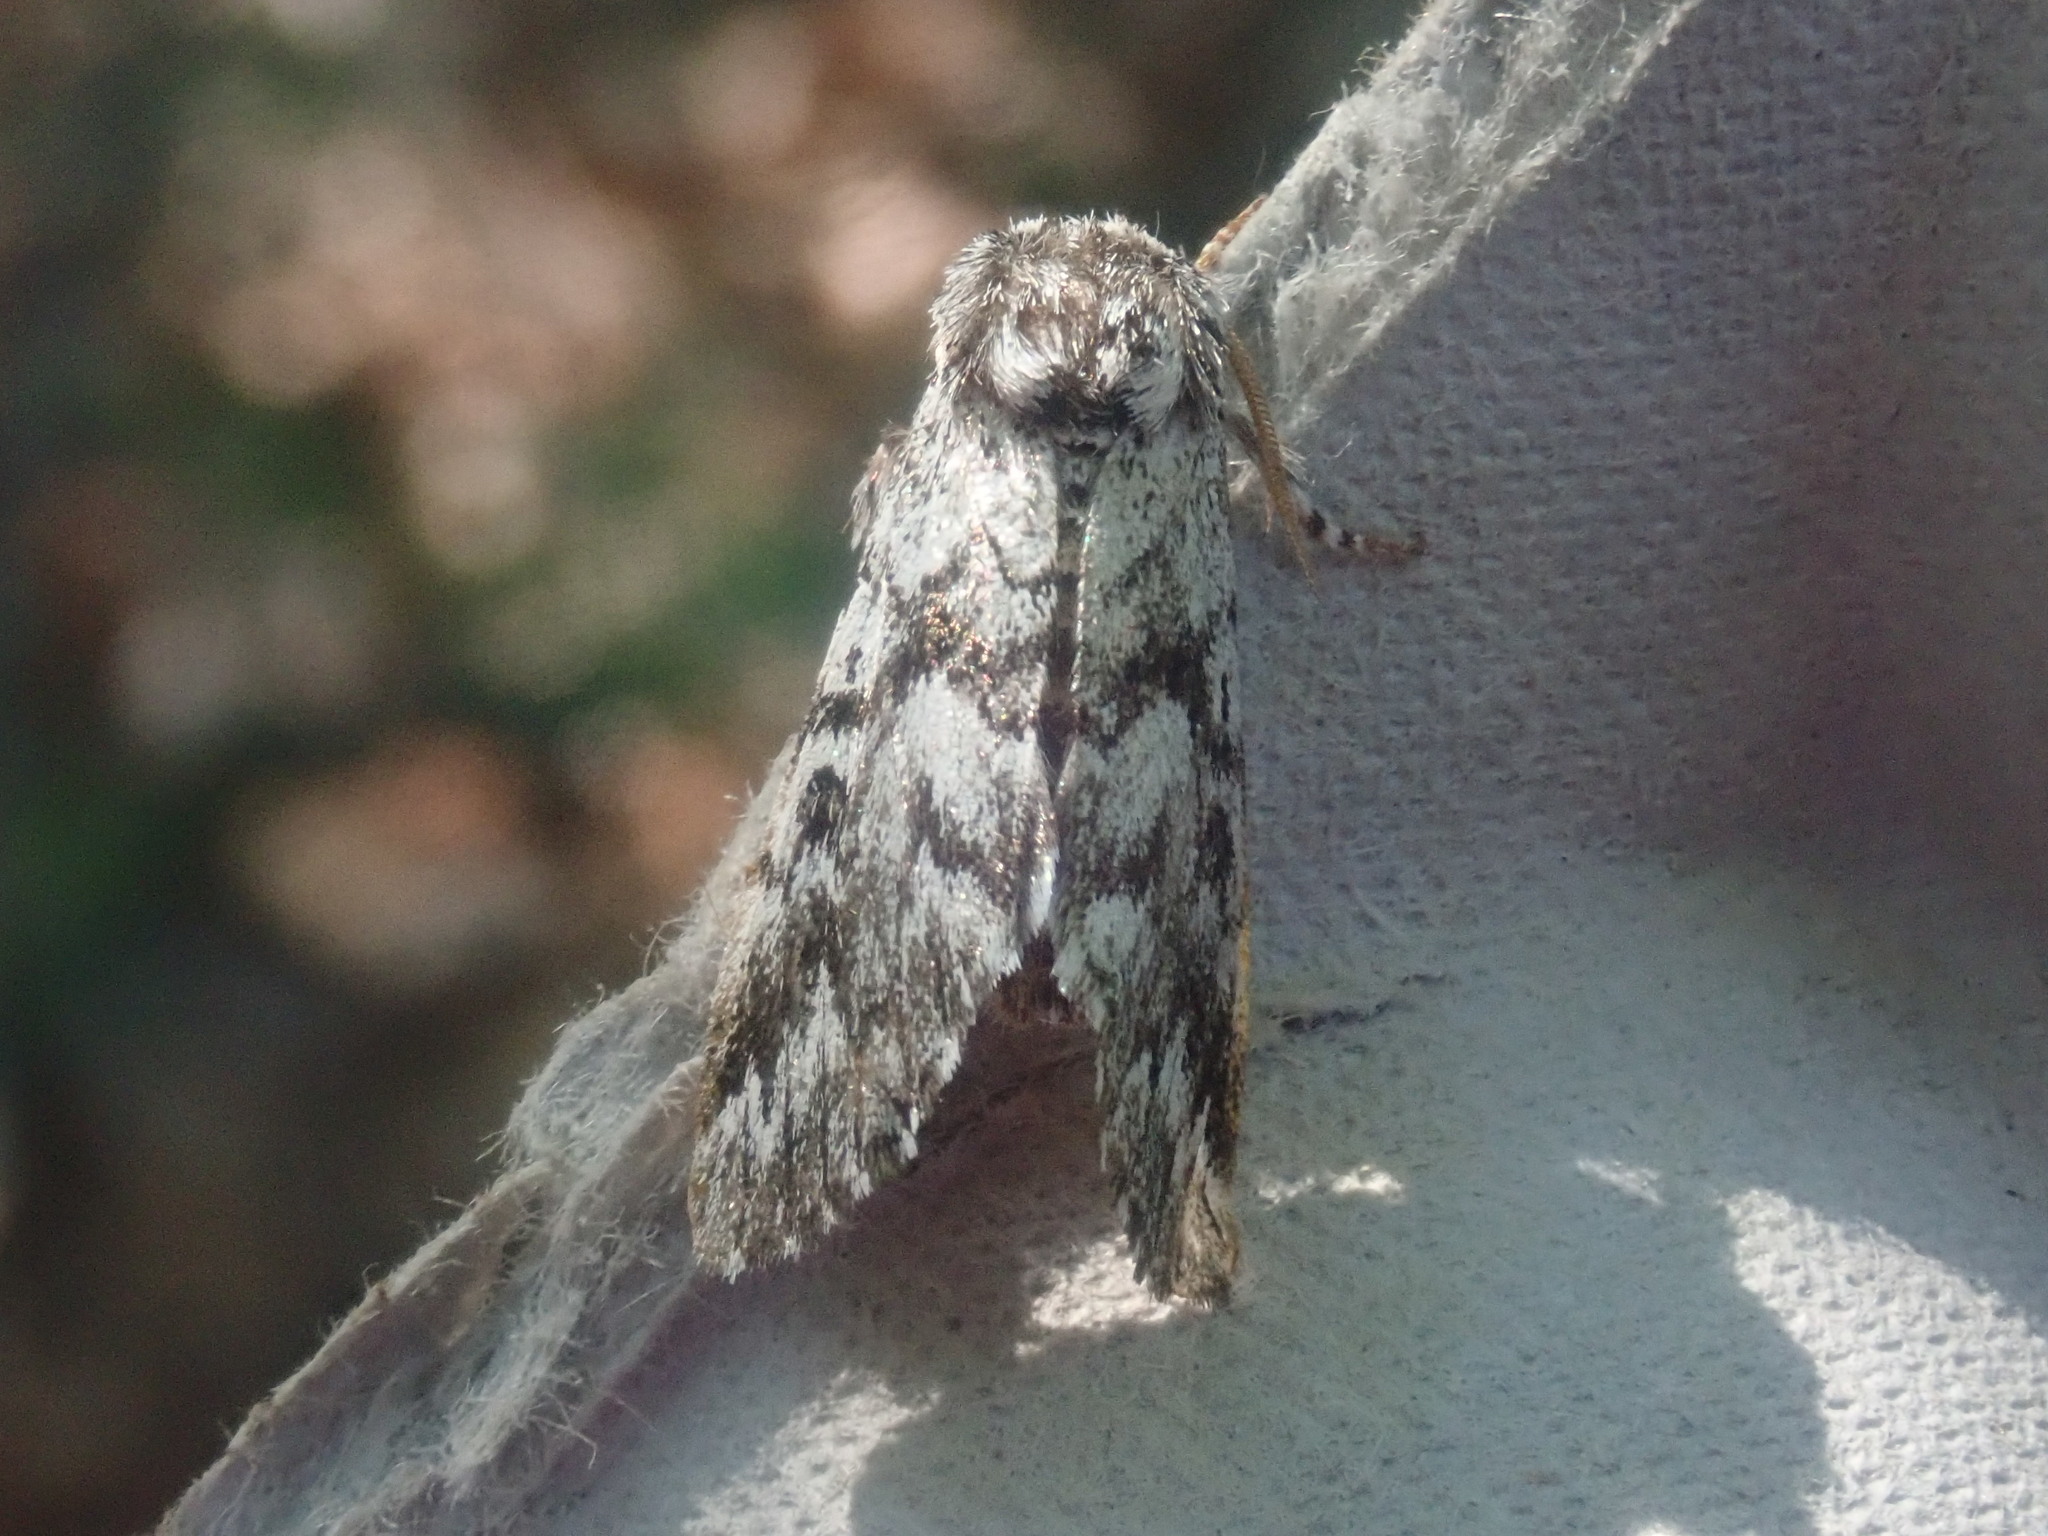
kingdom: Animalia
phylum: Arthropoda
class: Insecta
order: Lepidoptera
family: Noctuidae
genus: Panthea
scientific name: Panthea acronyctoides
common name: Black zigzag moth
